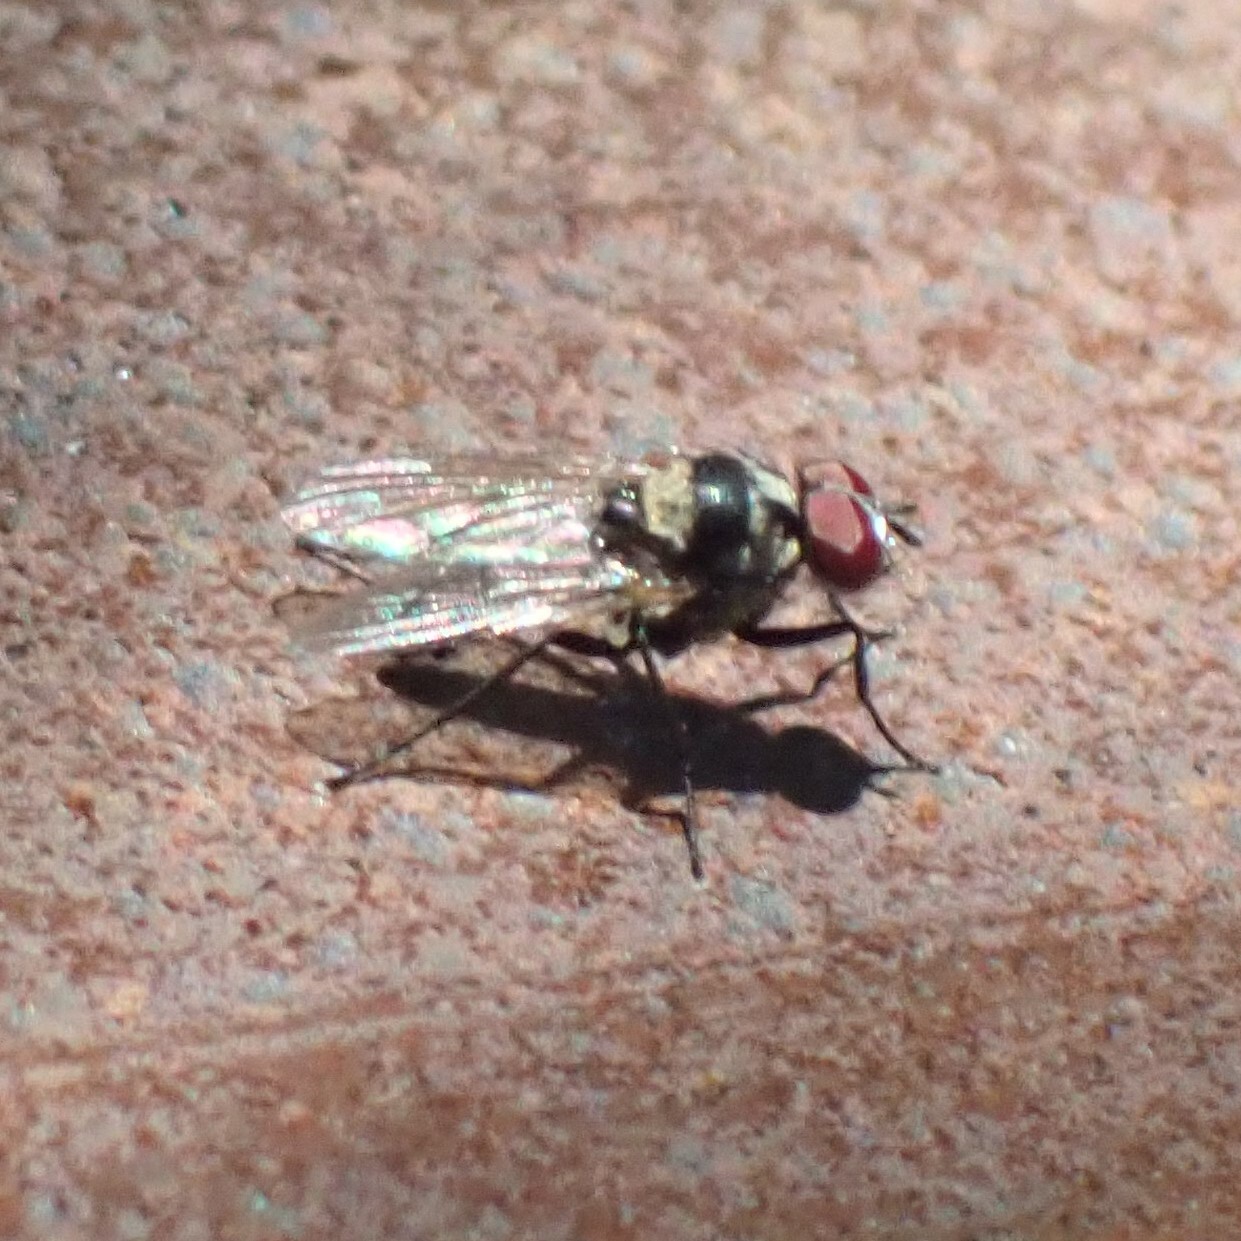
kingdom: Animalia
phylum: Arthropoda
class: Insecta
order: Diptera
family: Anthomyiidae
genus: Anthomyia
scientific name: Anthomyia oculifera
